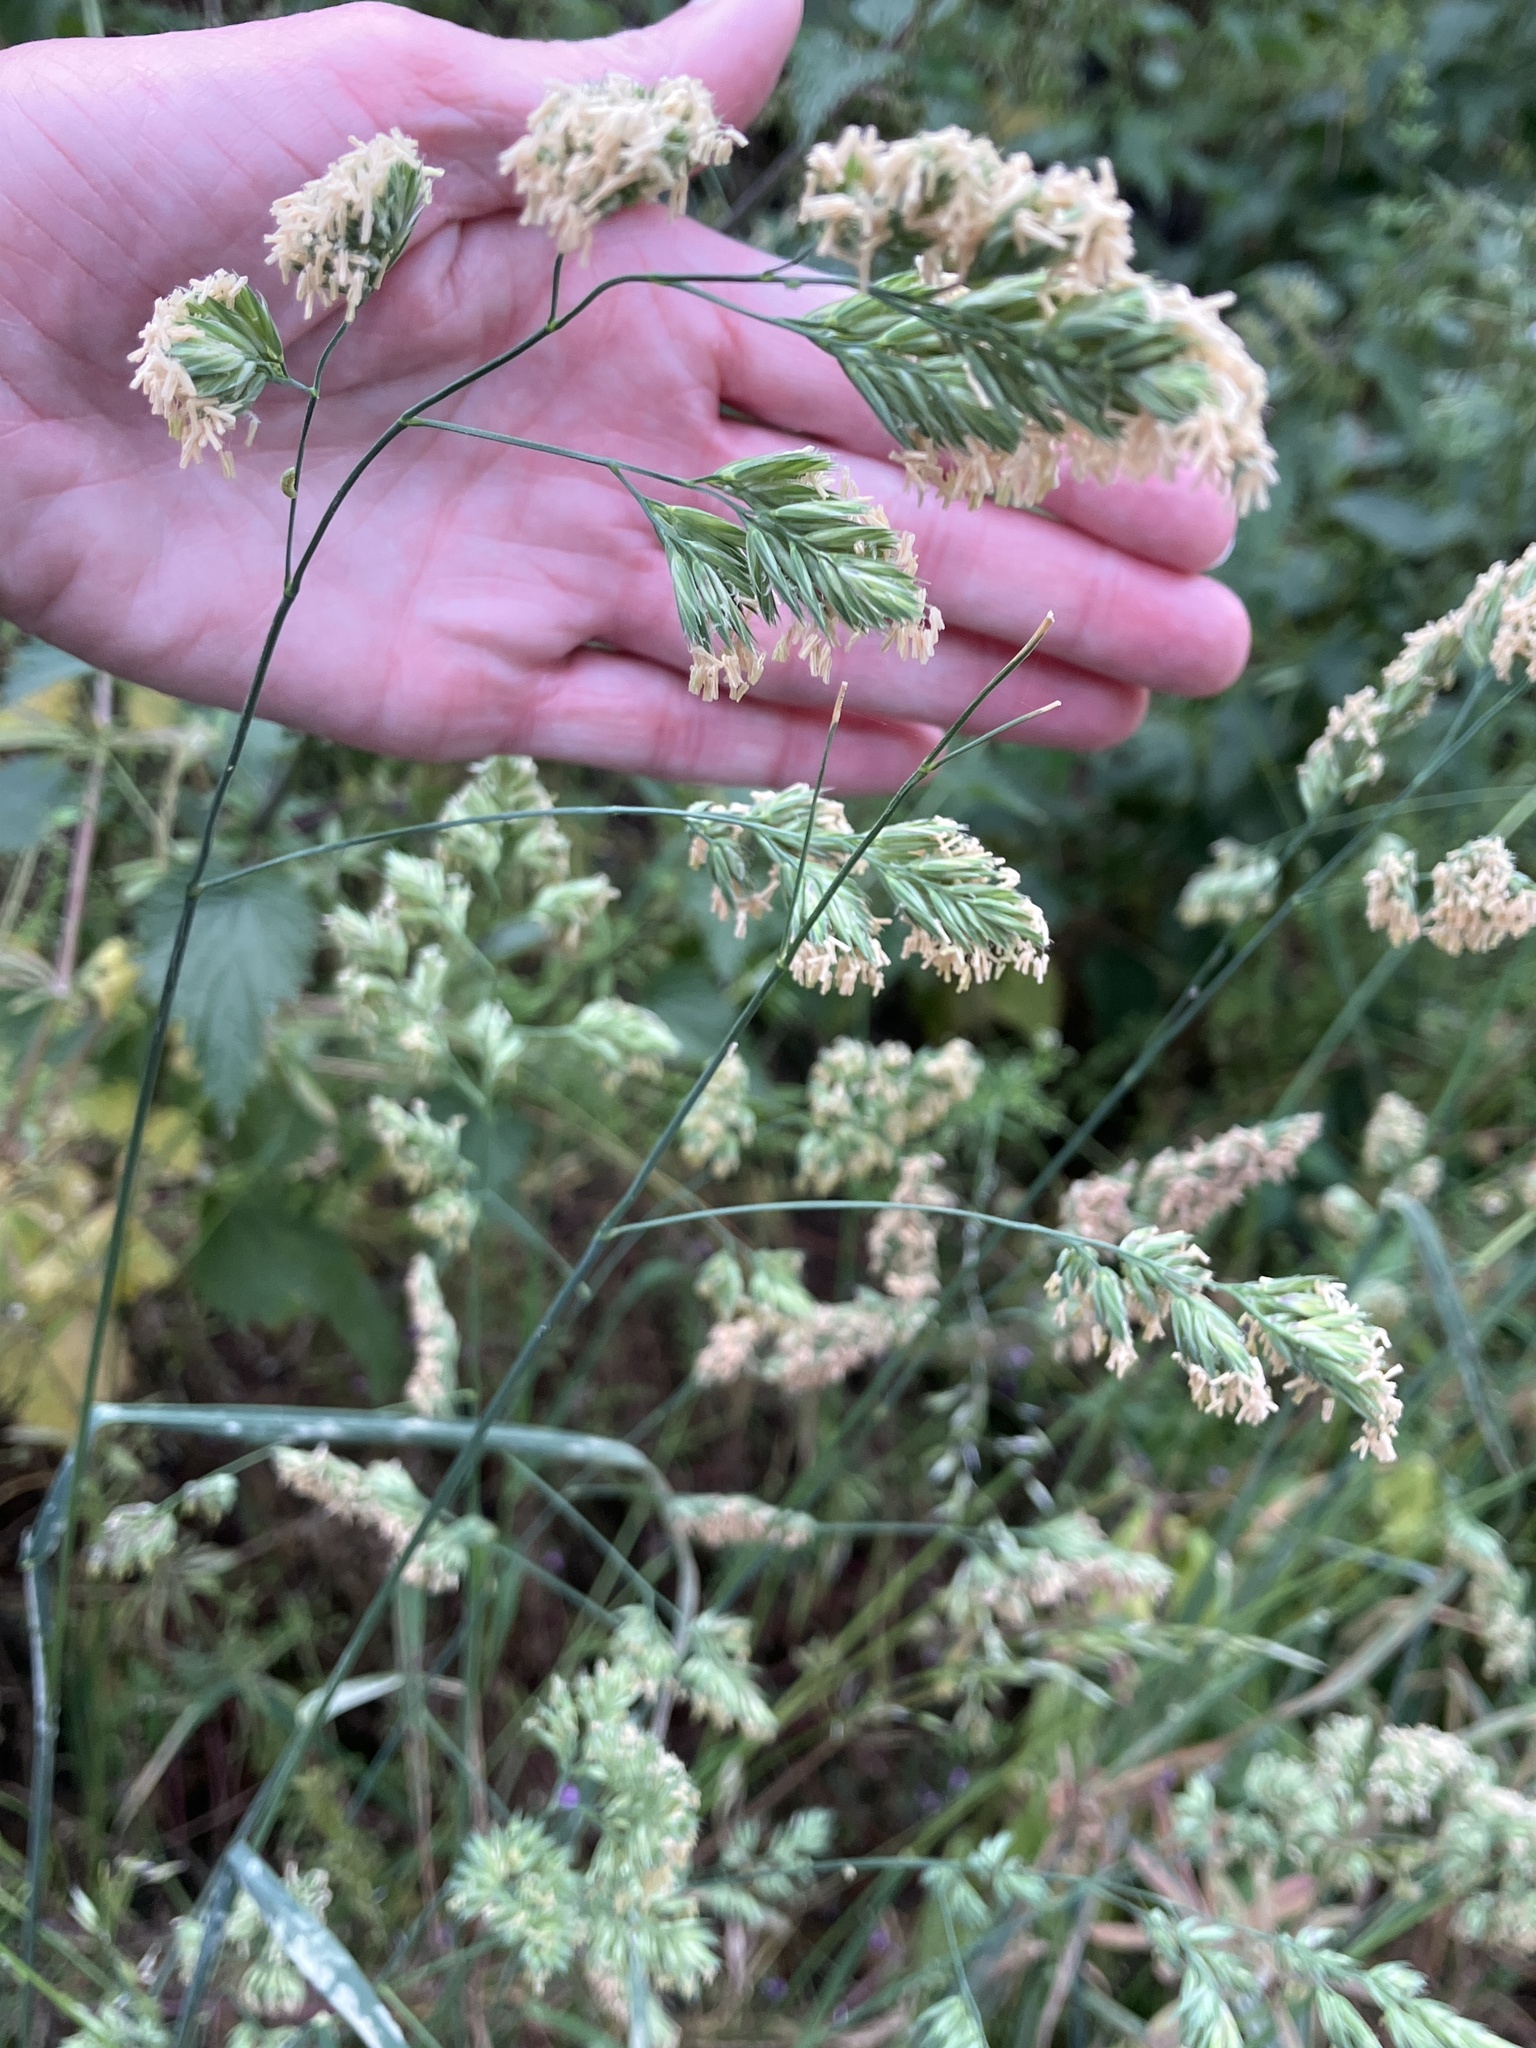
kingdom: Plantae
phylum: Tracheophyta
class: Liliopsida
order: Poales
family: Poaceae
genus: Dactylis
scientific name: Dactylis glomerata
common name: Orchardgrass
